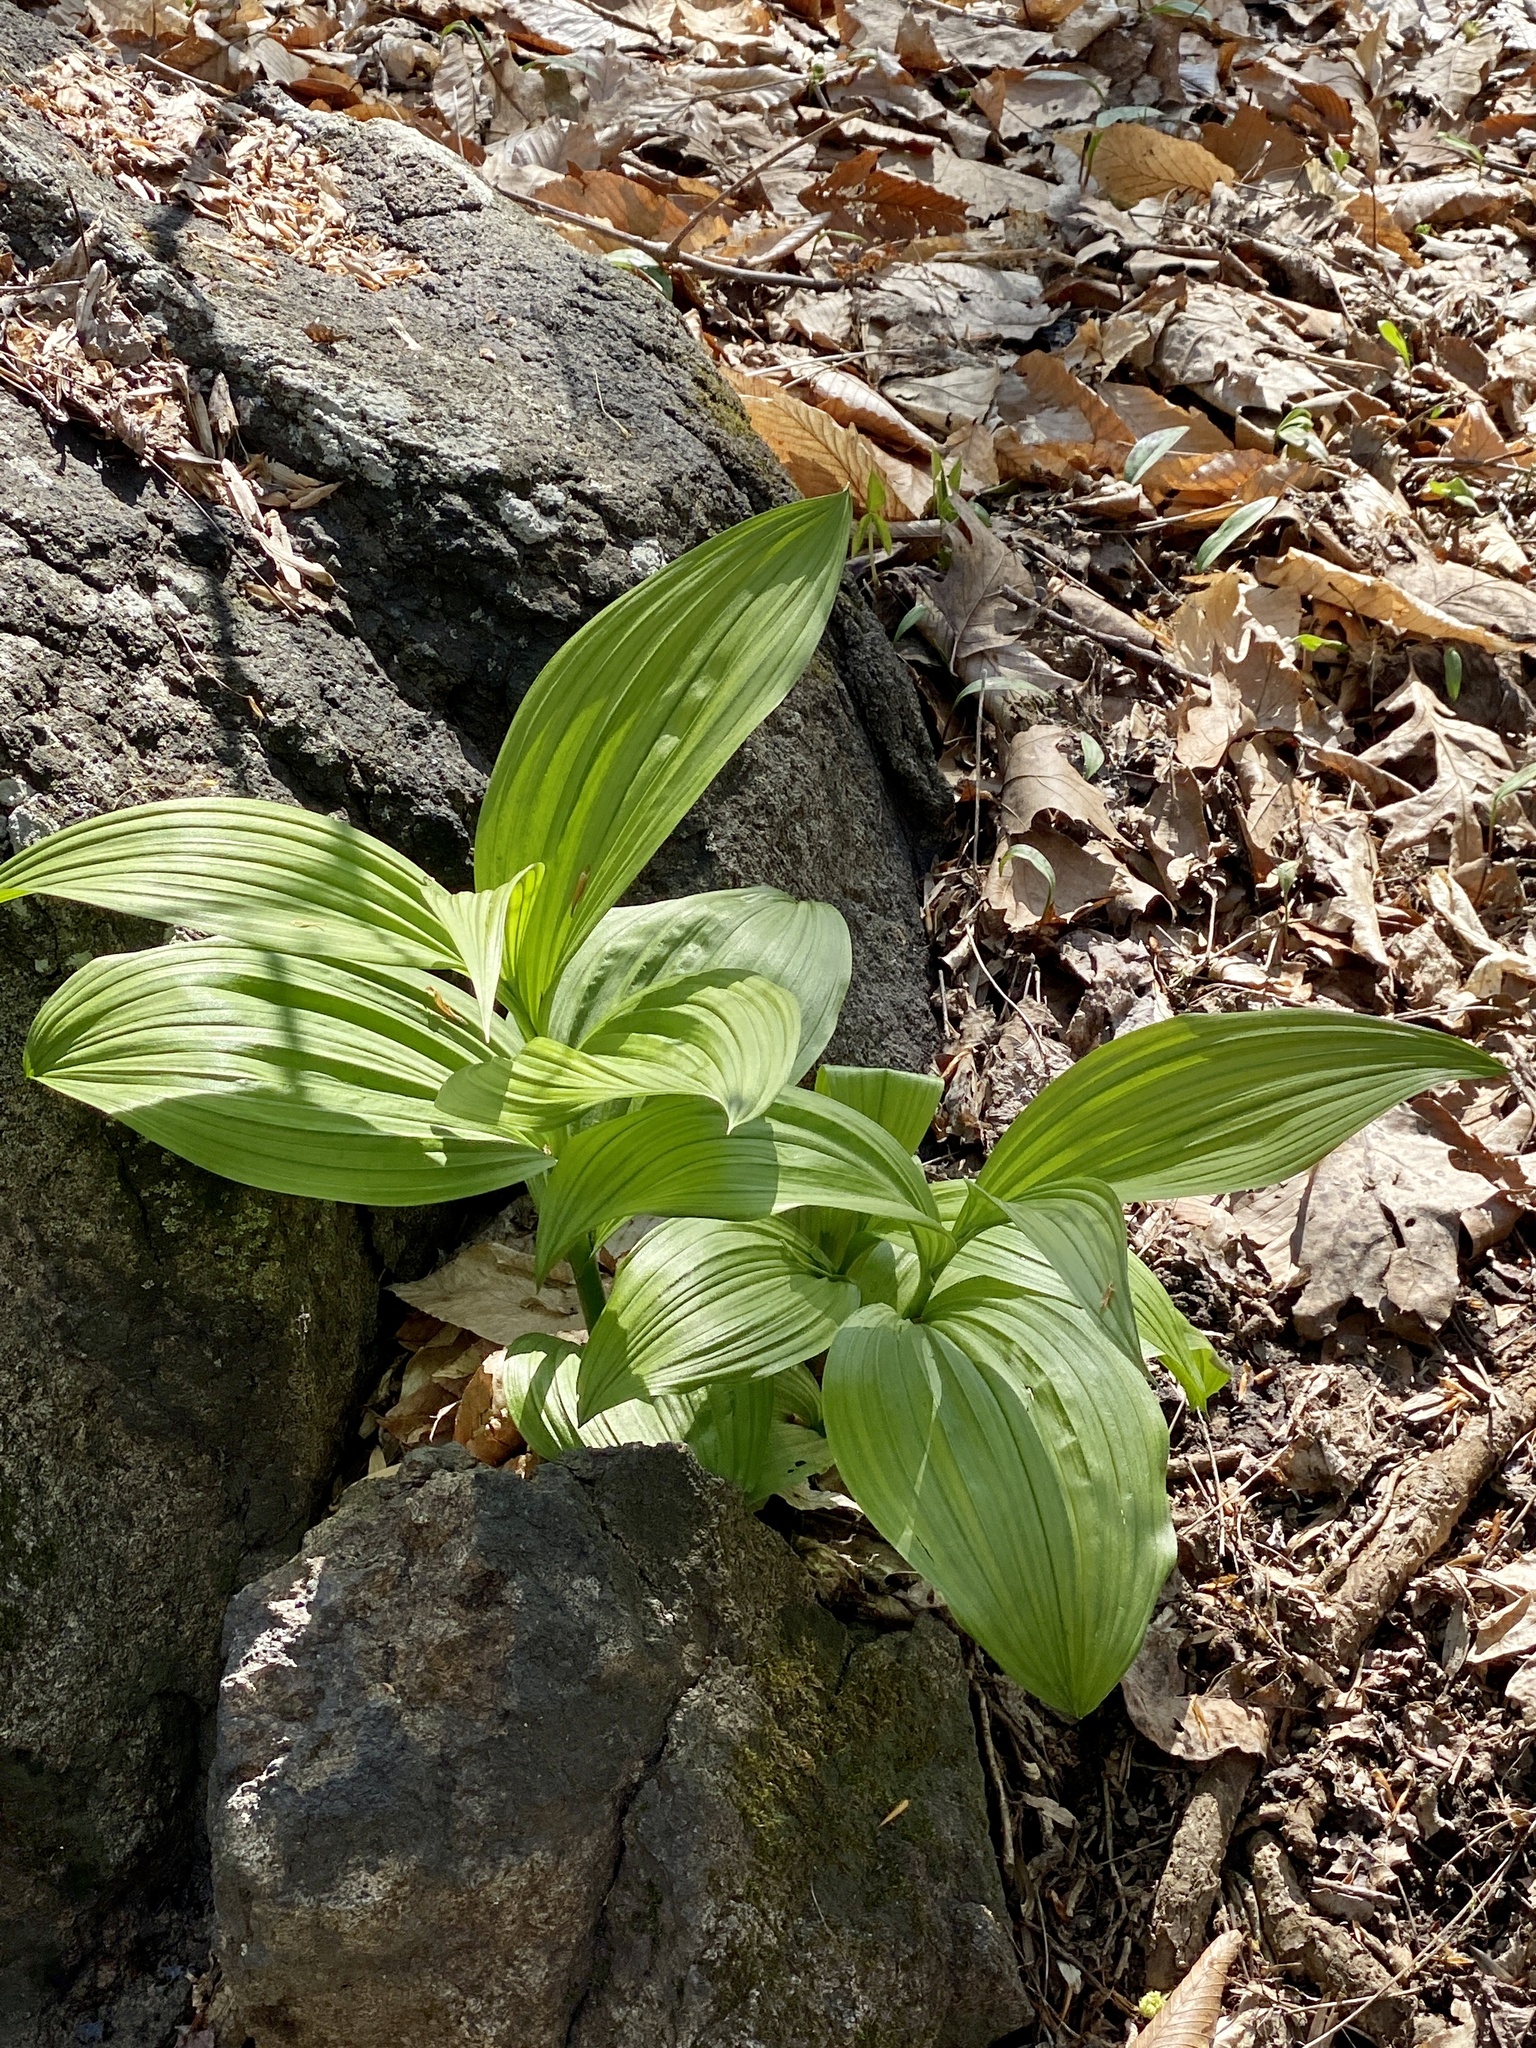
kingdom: Plantae
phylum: Tracheophyta
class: Liliopsida
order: Liliales
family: Melanthiaceae
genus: Veratrum
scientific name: Veratrum viride
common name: American false hellebore
